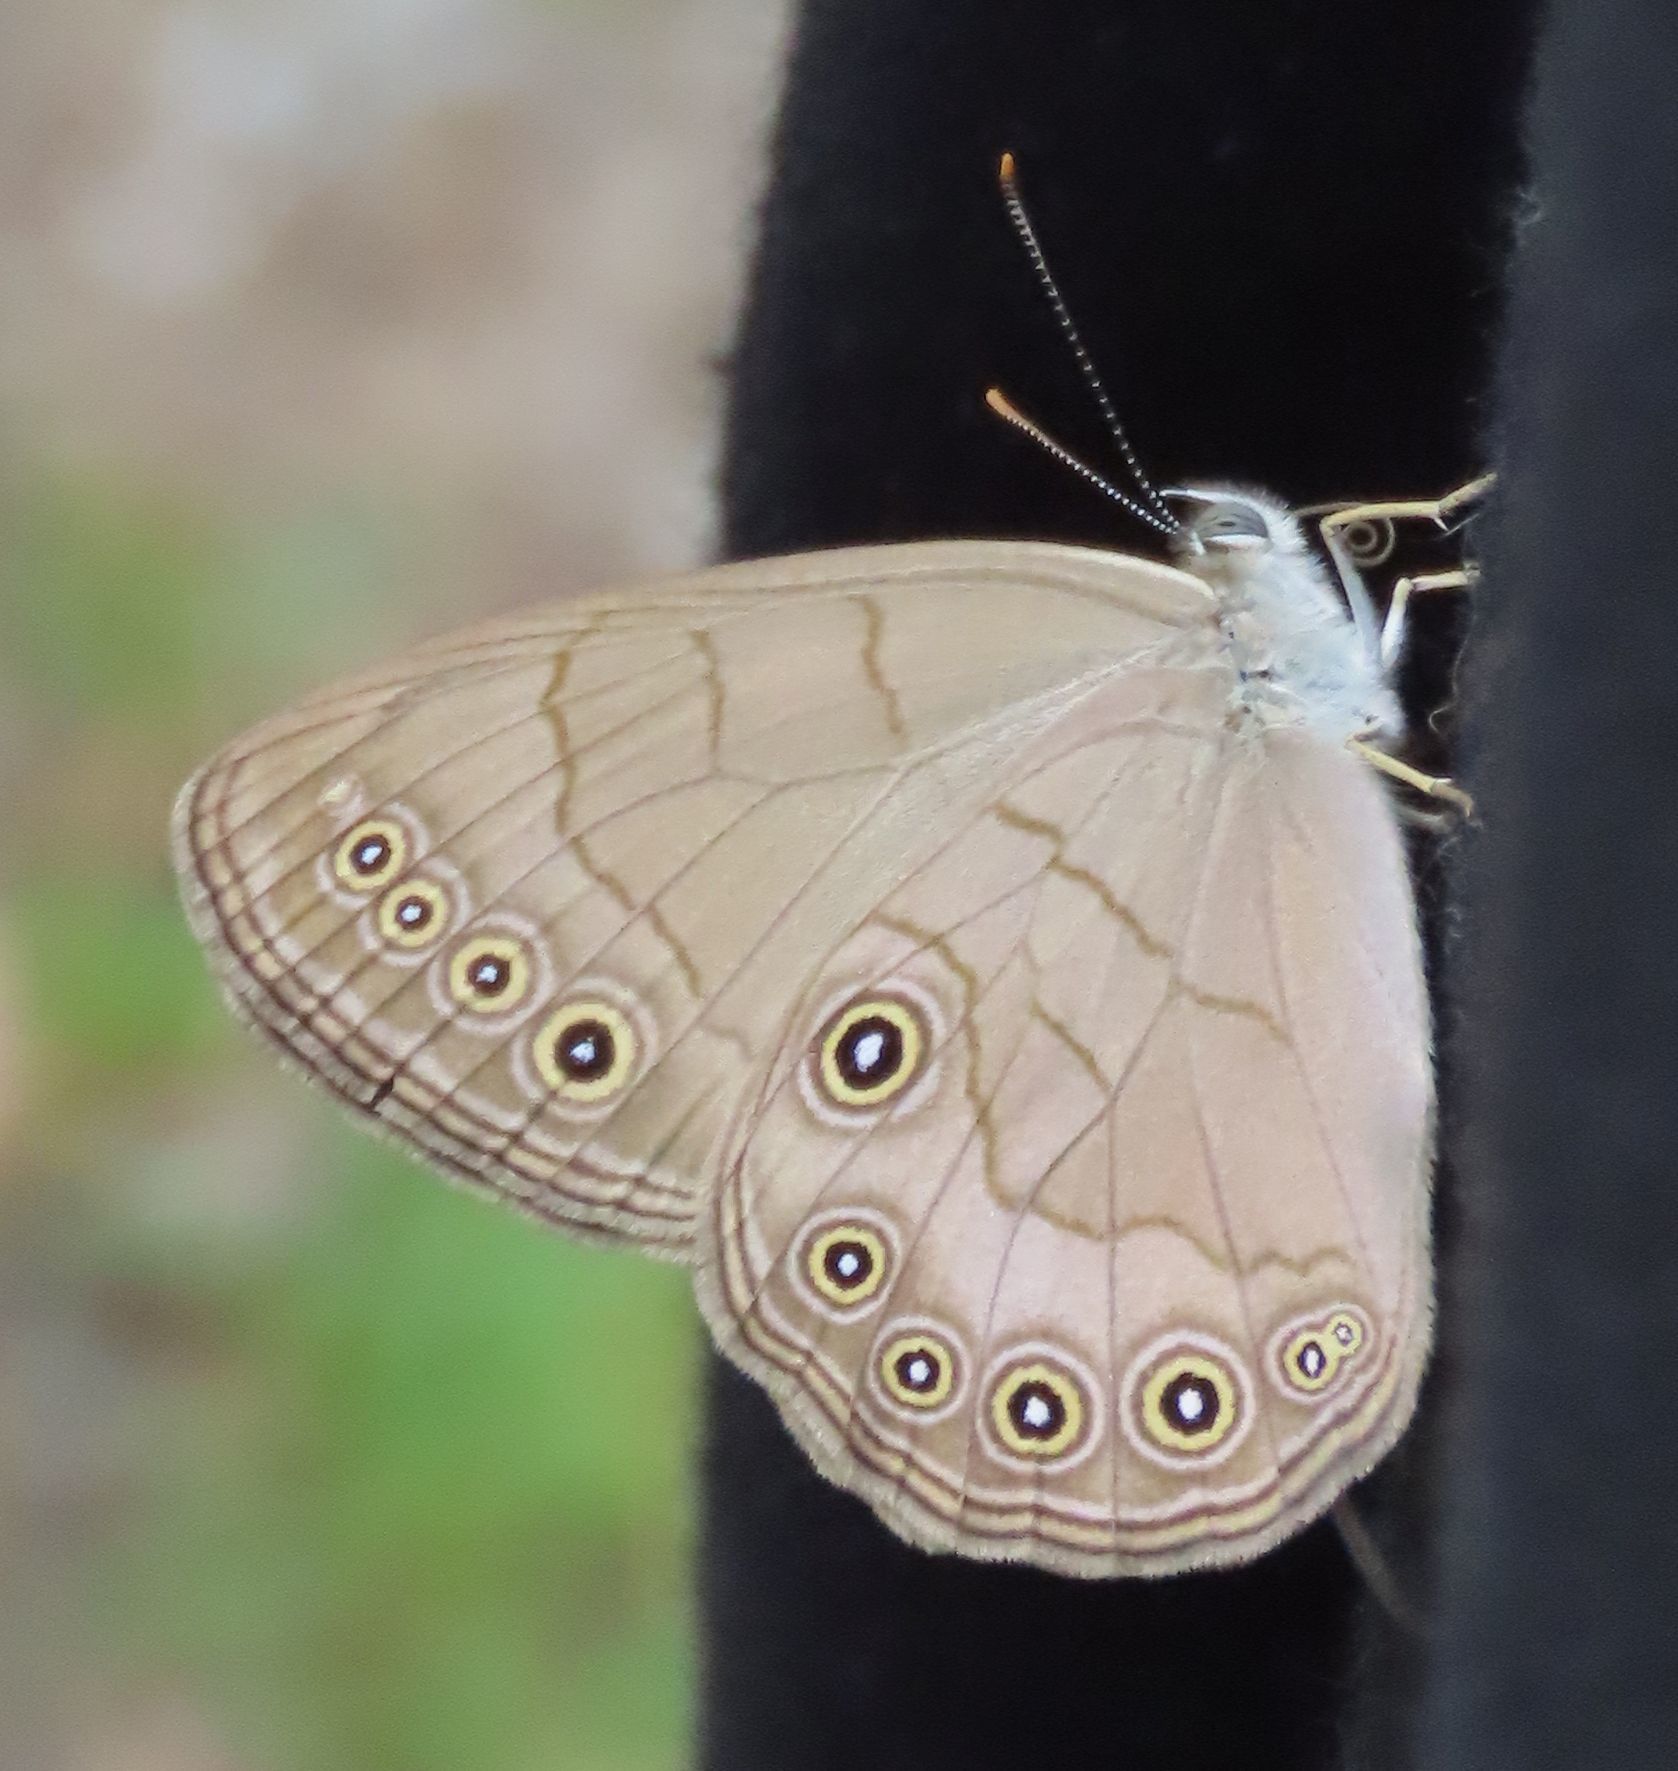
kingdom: Animalia
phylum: Arthropoda
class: Insecta
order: Lepidoptera
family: Nymphalidae
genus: Lethe
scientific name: Lethe eurydice
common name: Eyed brown
